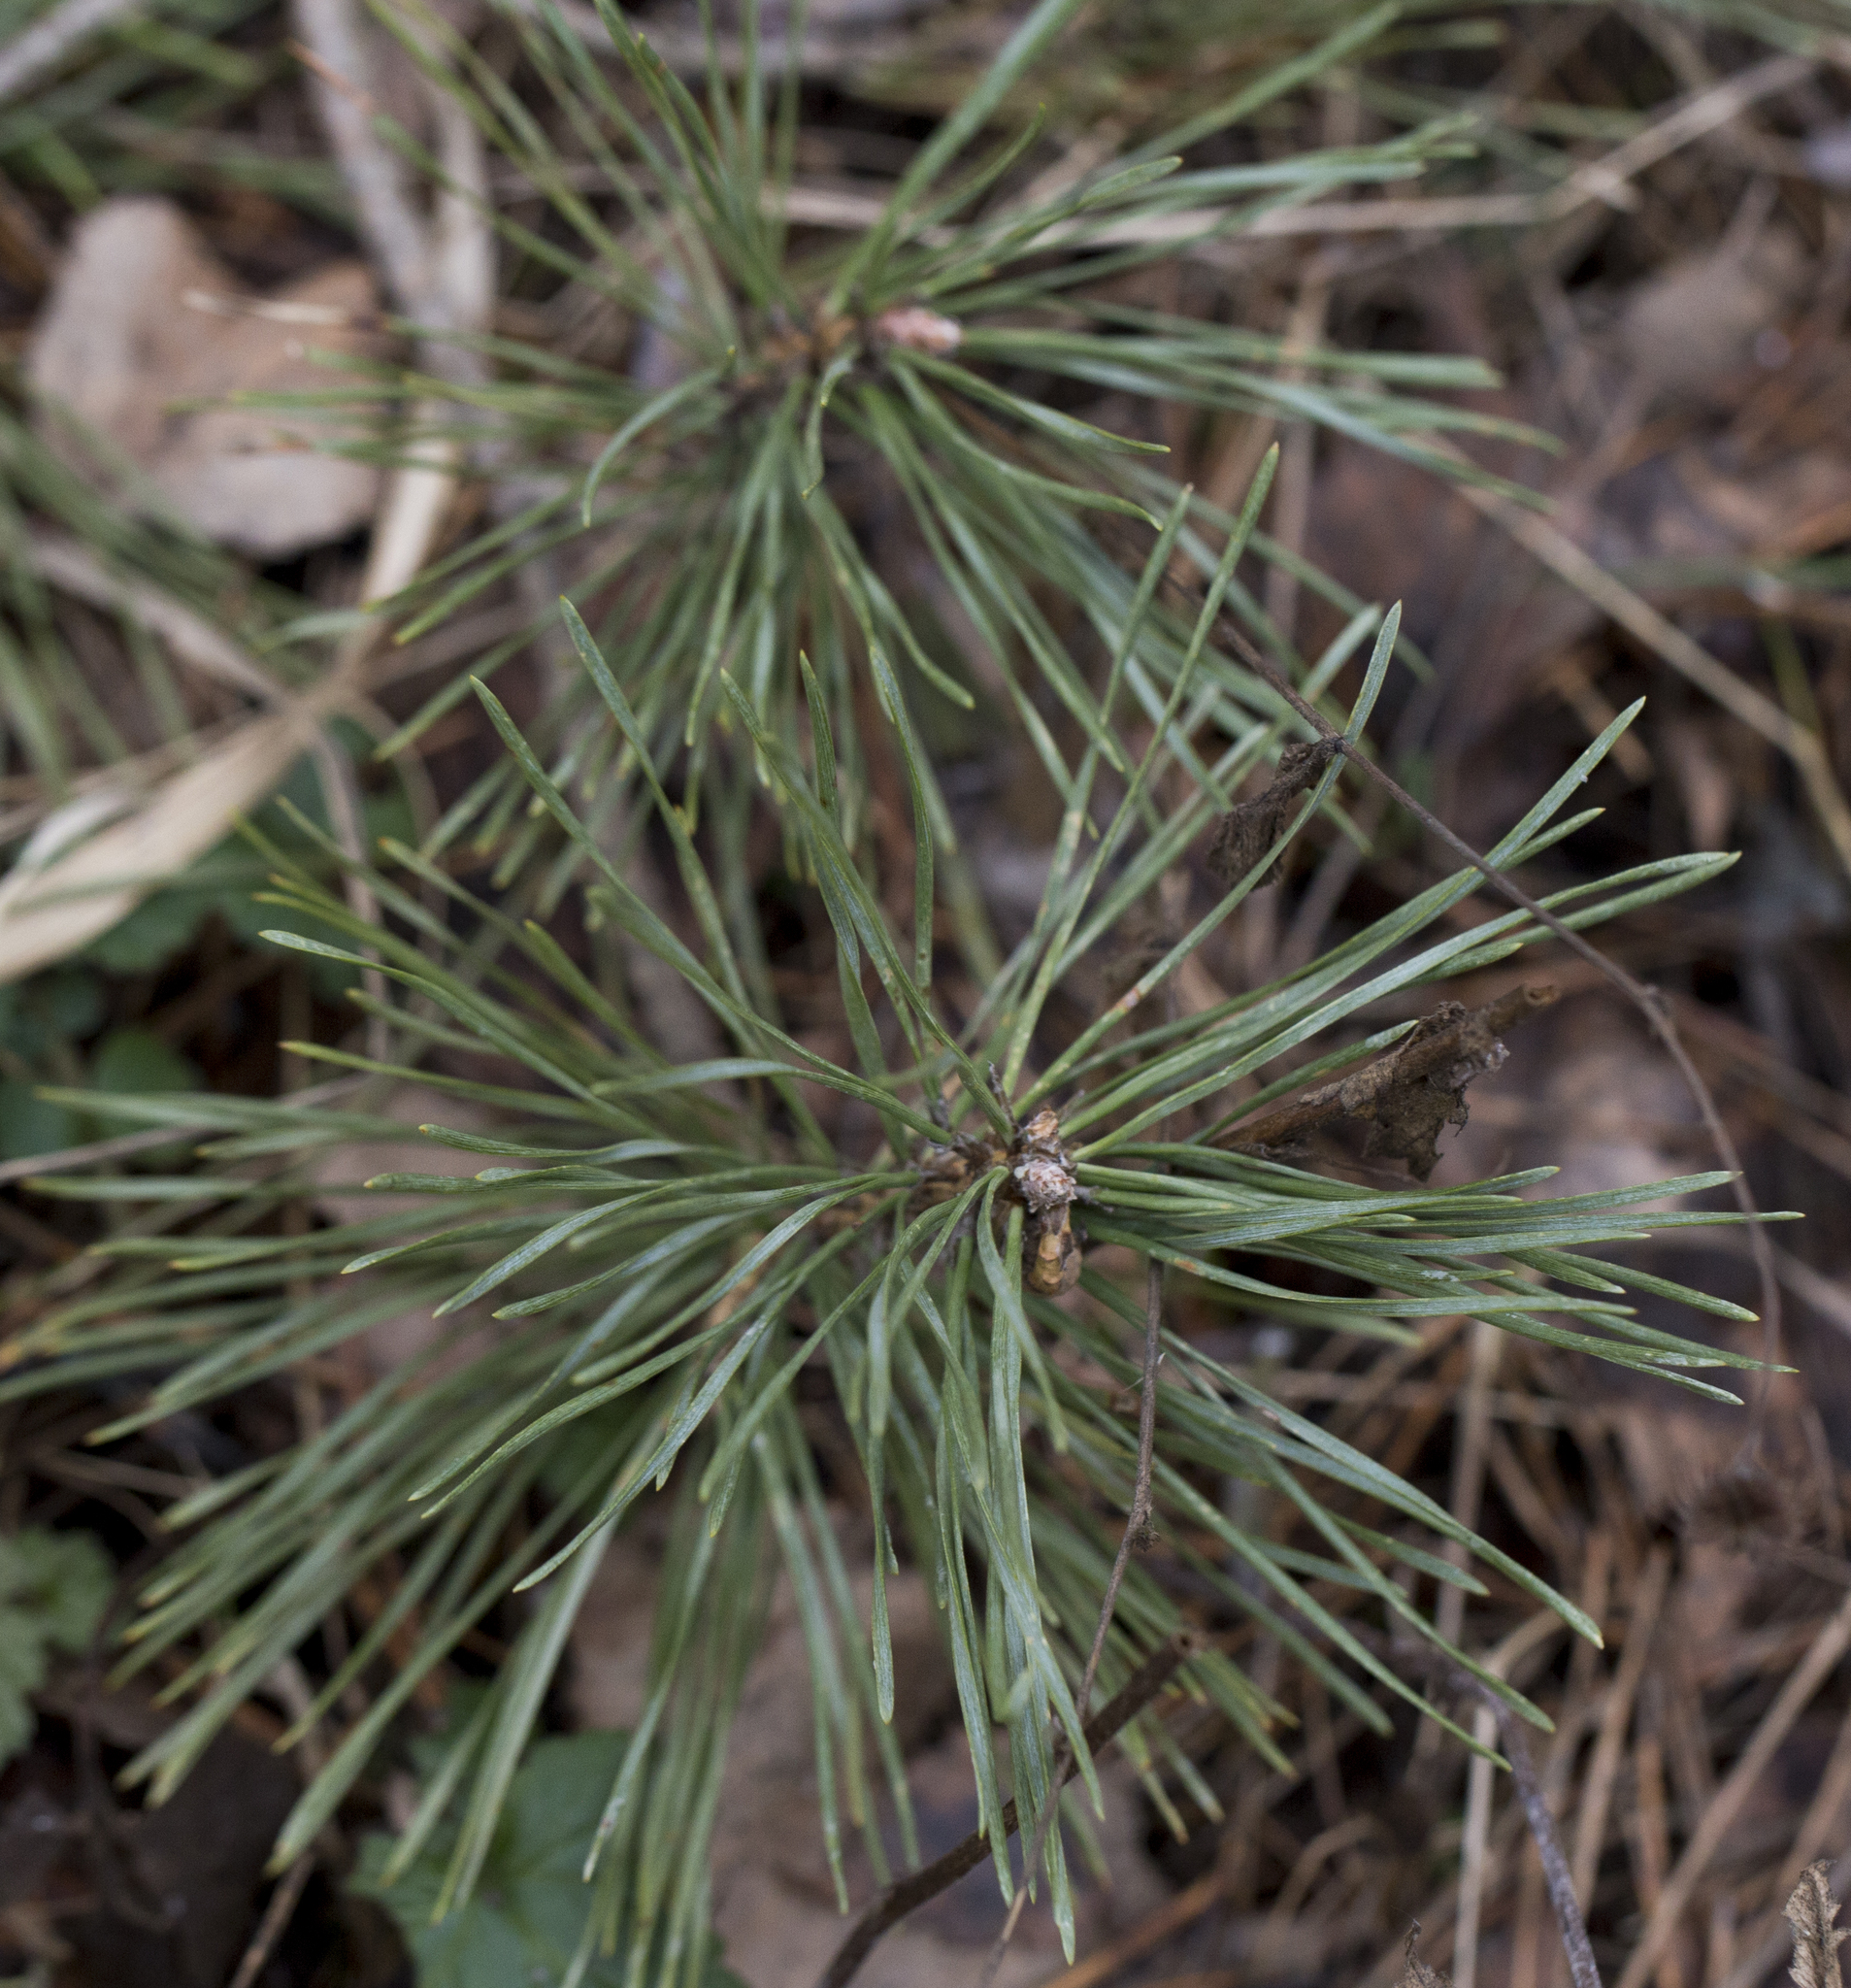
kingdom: Plantae
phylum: Tracheophyta
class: Pinopsida
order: Pinales
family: Pinaceae
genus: Pinus
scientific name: Pinus sylvestris
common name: Scots pine
